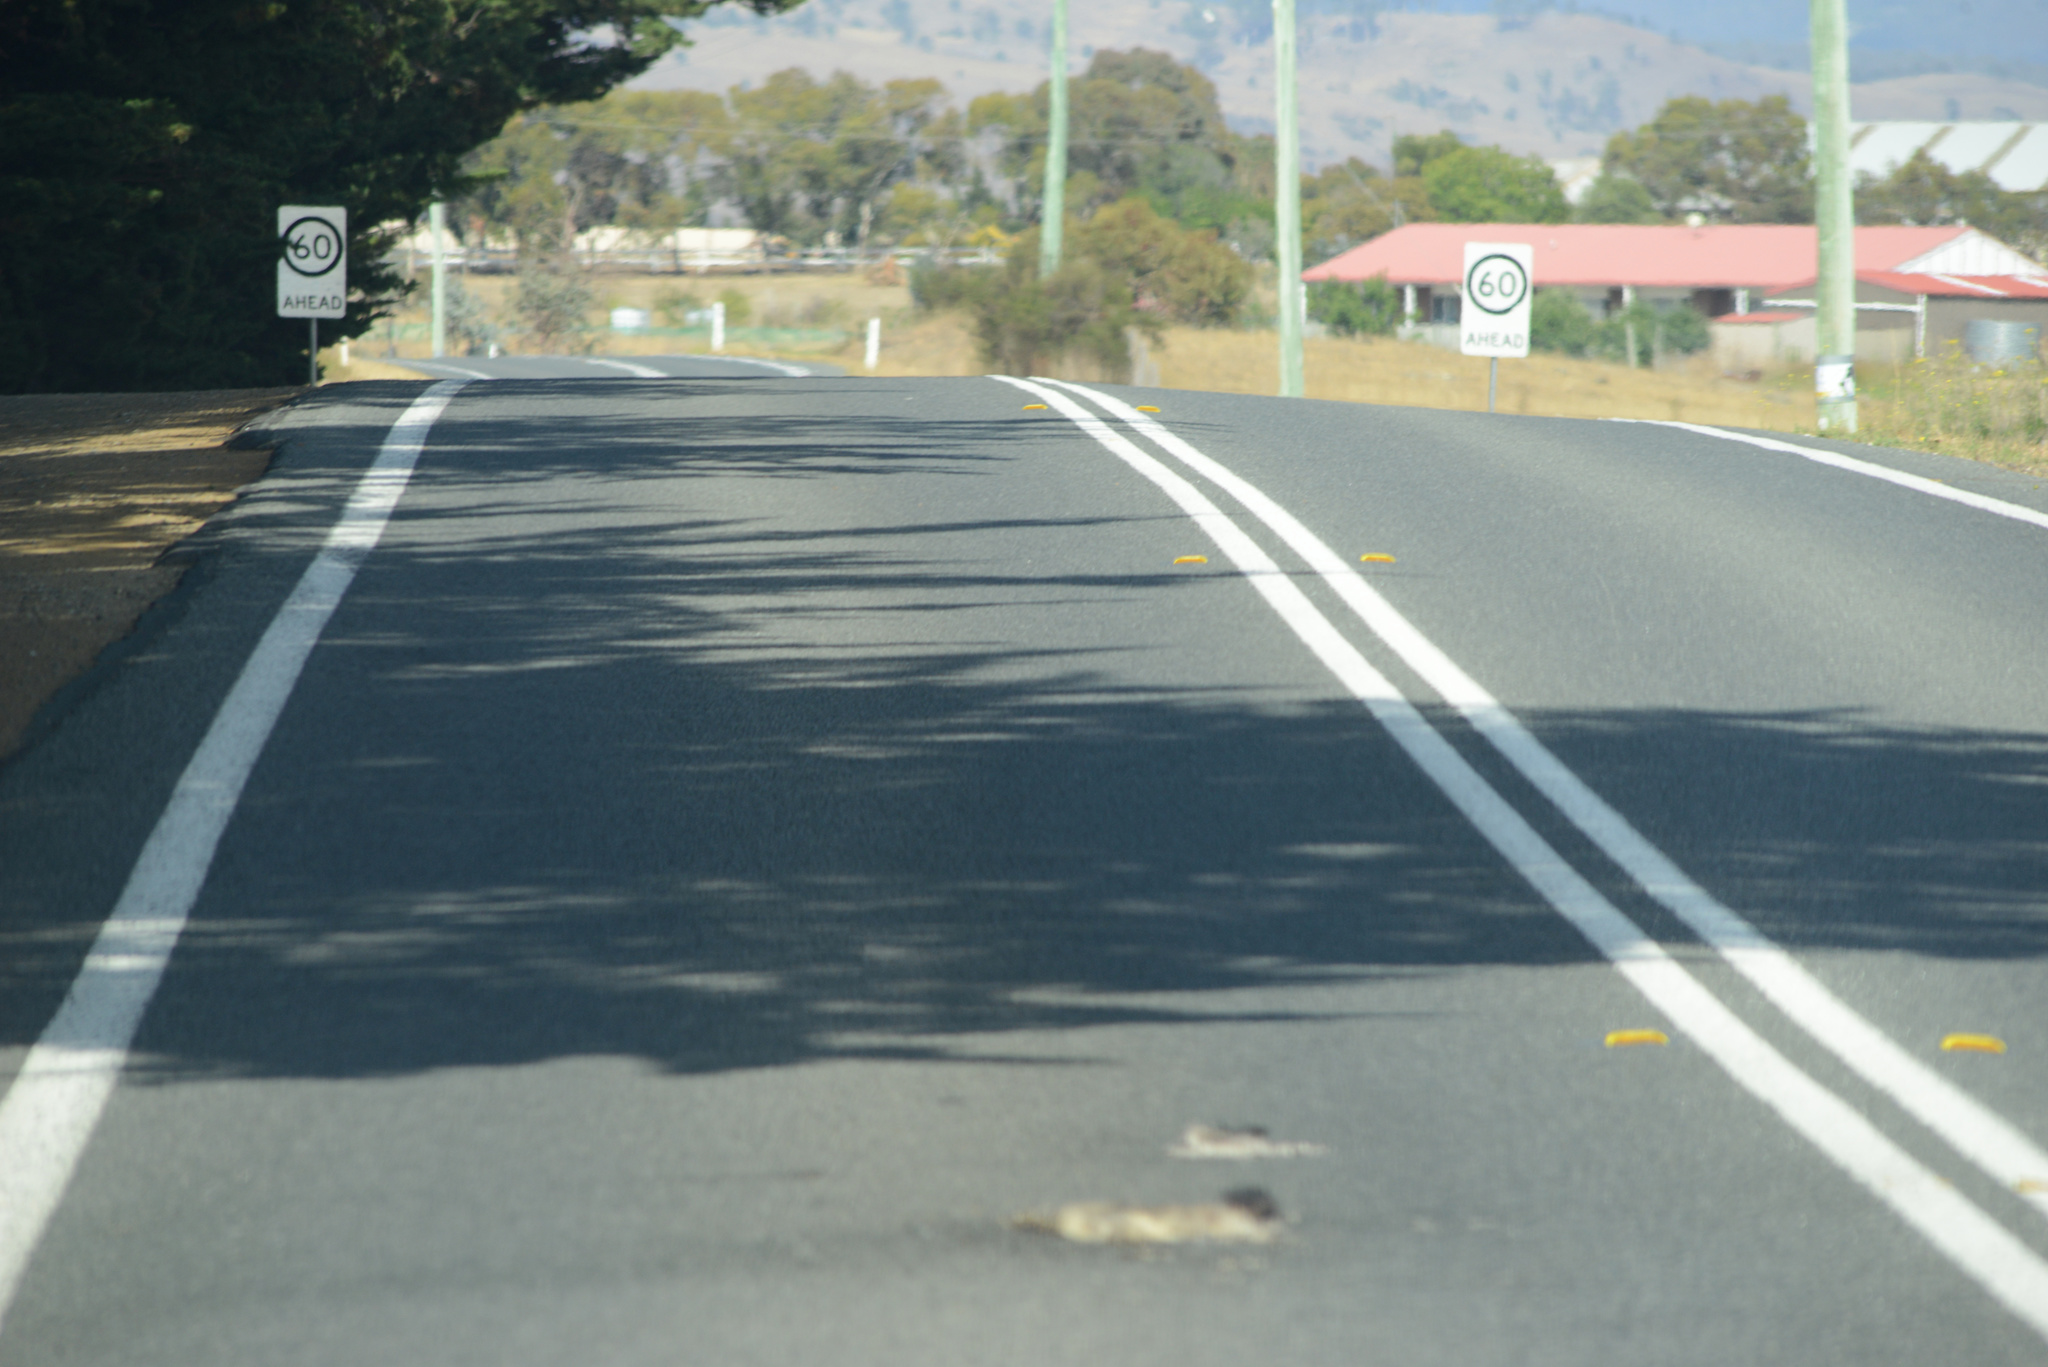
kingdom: Animalia
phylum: Chordata
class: Mammalia
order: Diprotodontia
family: Phalangeridae
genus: Trichosurus
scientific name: Trichosurus vulpecula
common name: Common brushtail
